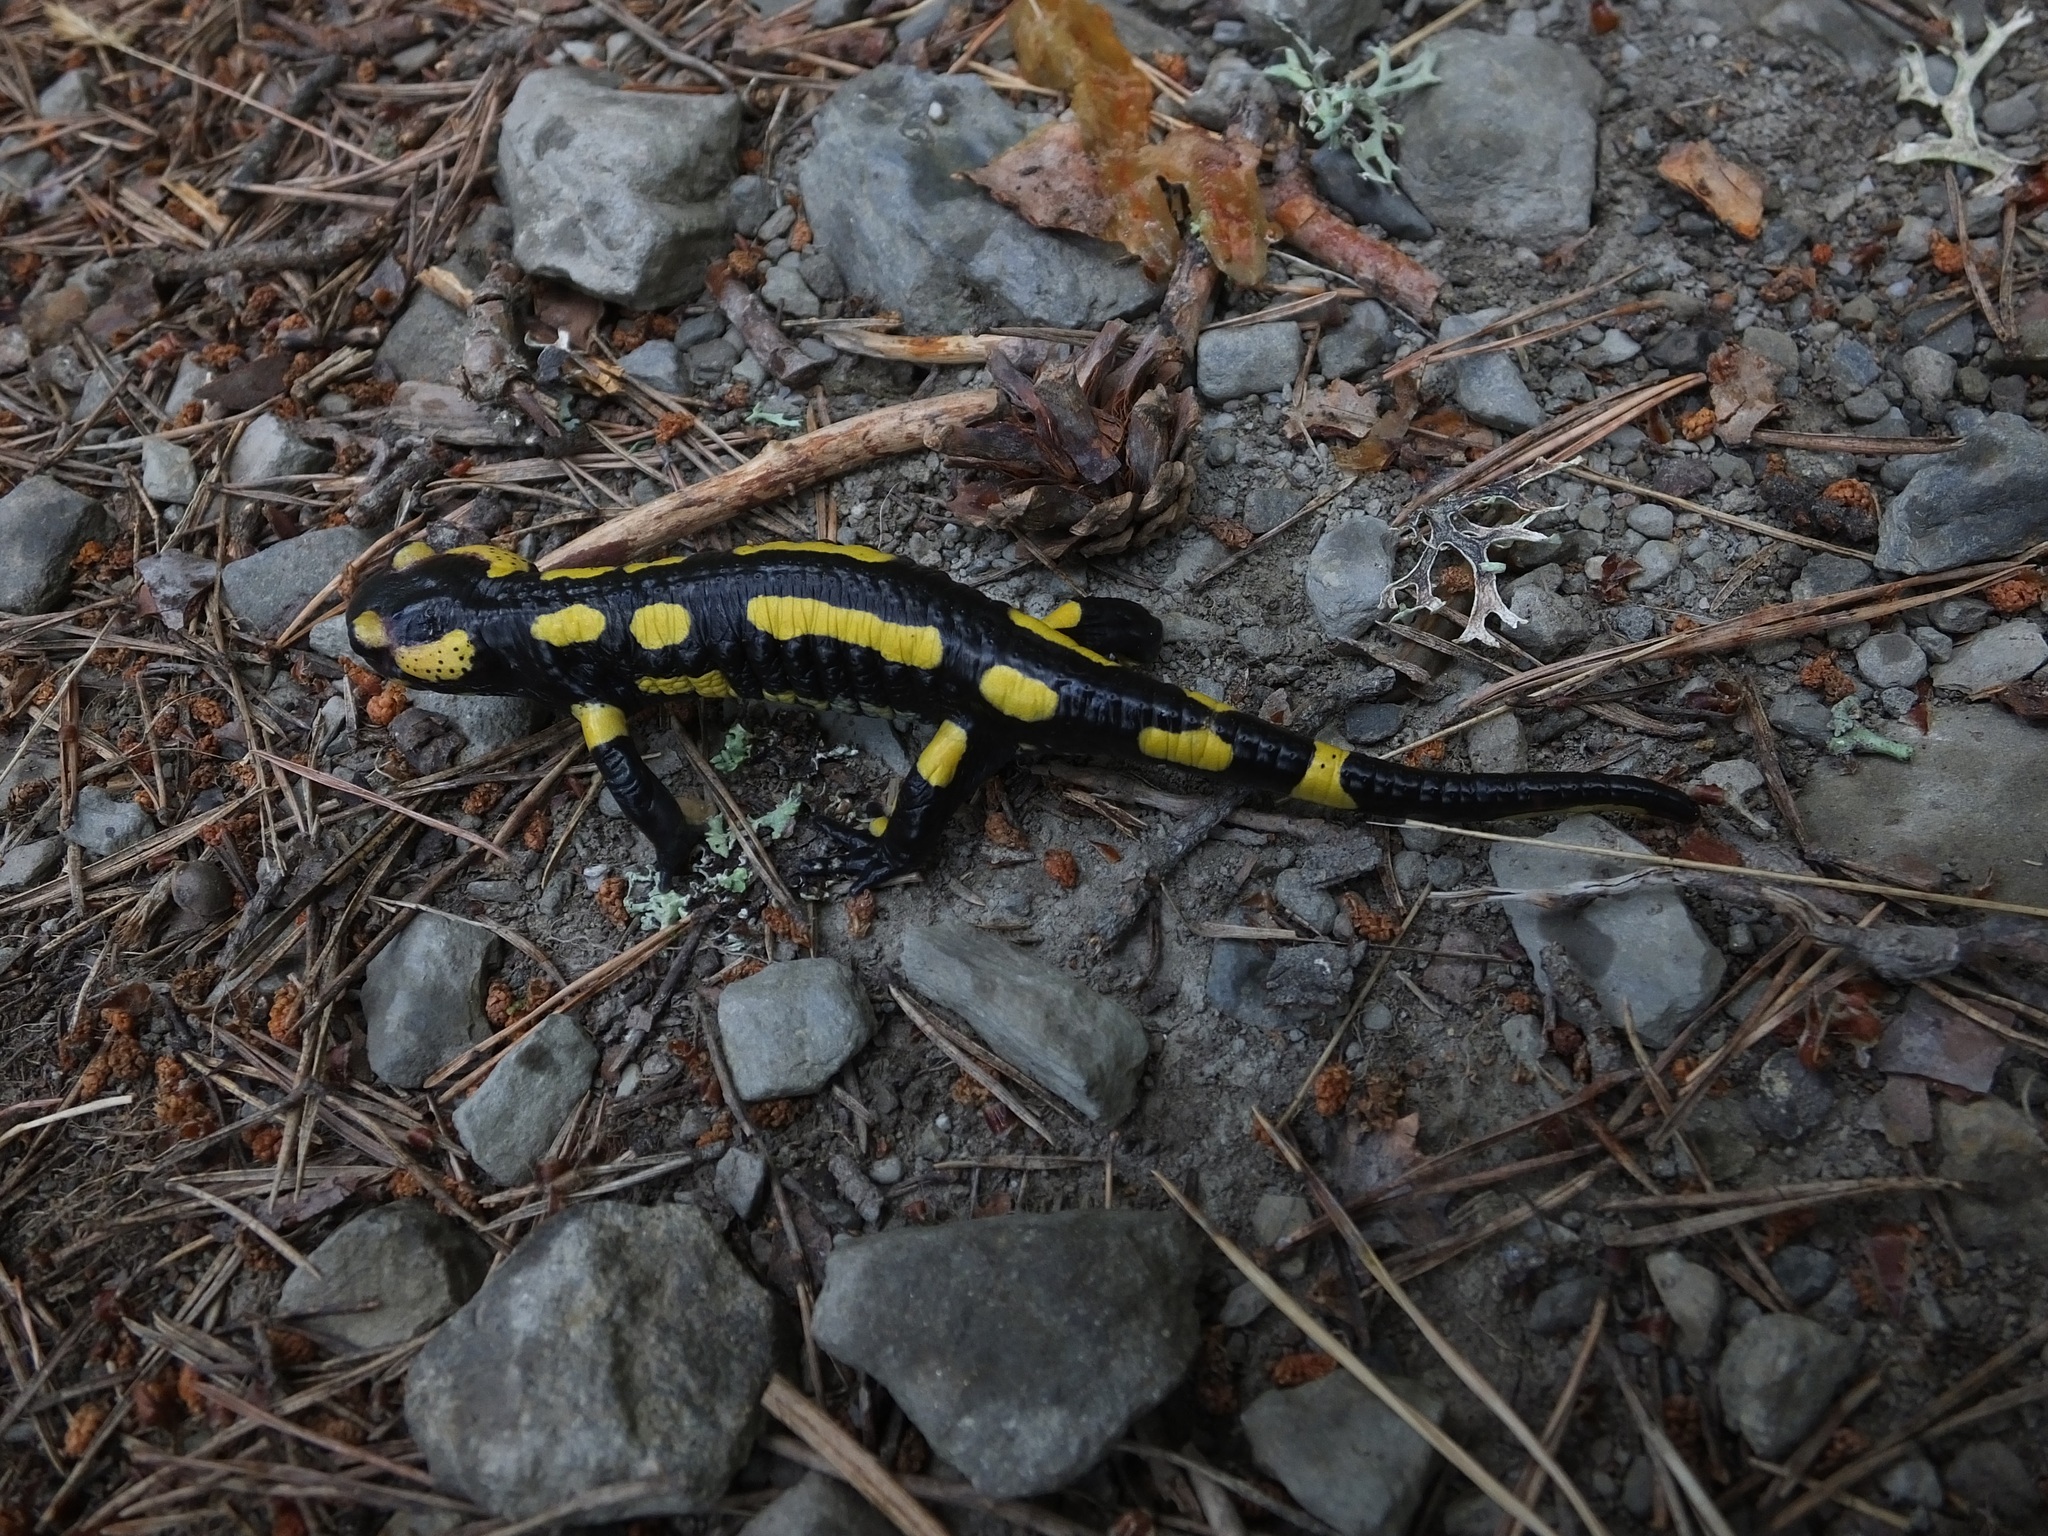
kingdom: Animalia
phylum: Chordata
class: Amphibia
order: Caudata
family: Salamandridae
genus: Salamandra
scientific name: Salamandra salamandra
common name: Fire salamander
